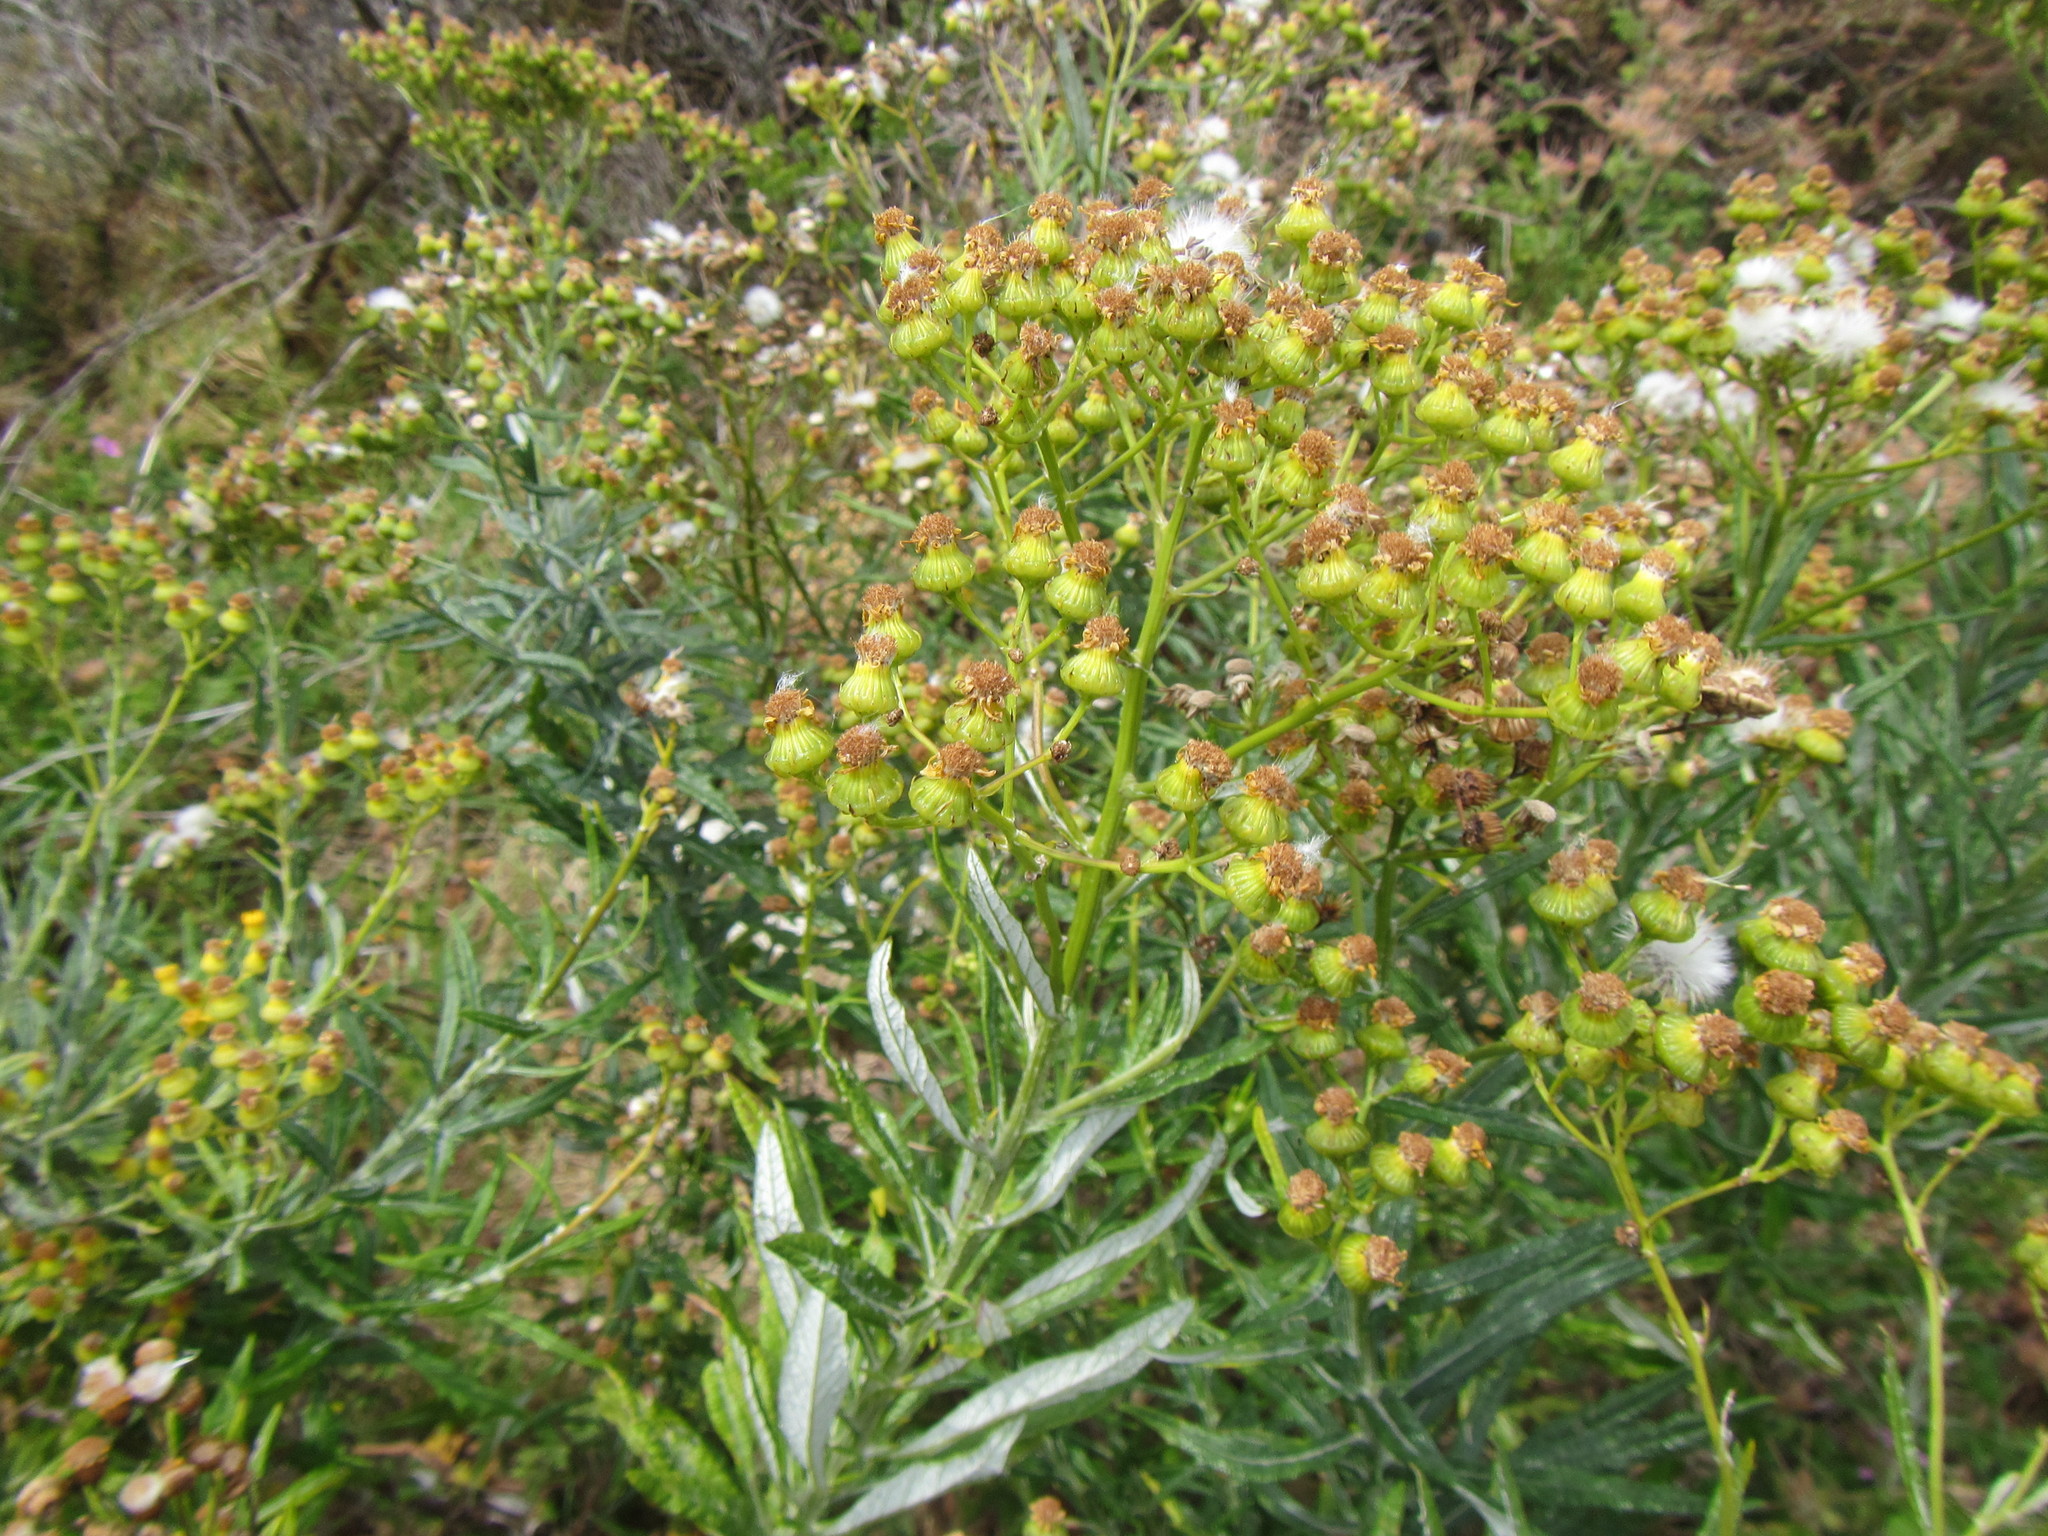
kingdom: Plantae
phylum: Tracheophyta
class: Magnoliopsida
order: Asterales
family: Asteraceae
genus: Senecio
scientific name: Senecio pterophorus
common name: Shoddy ragwort
